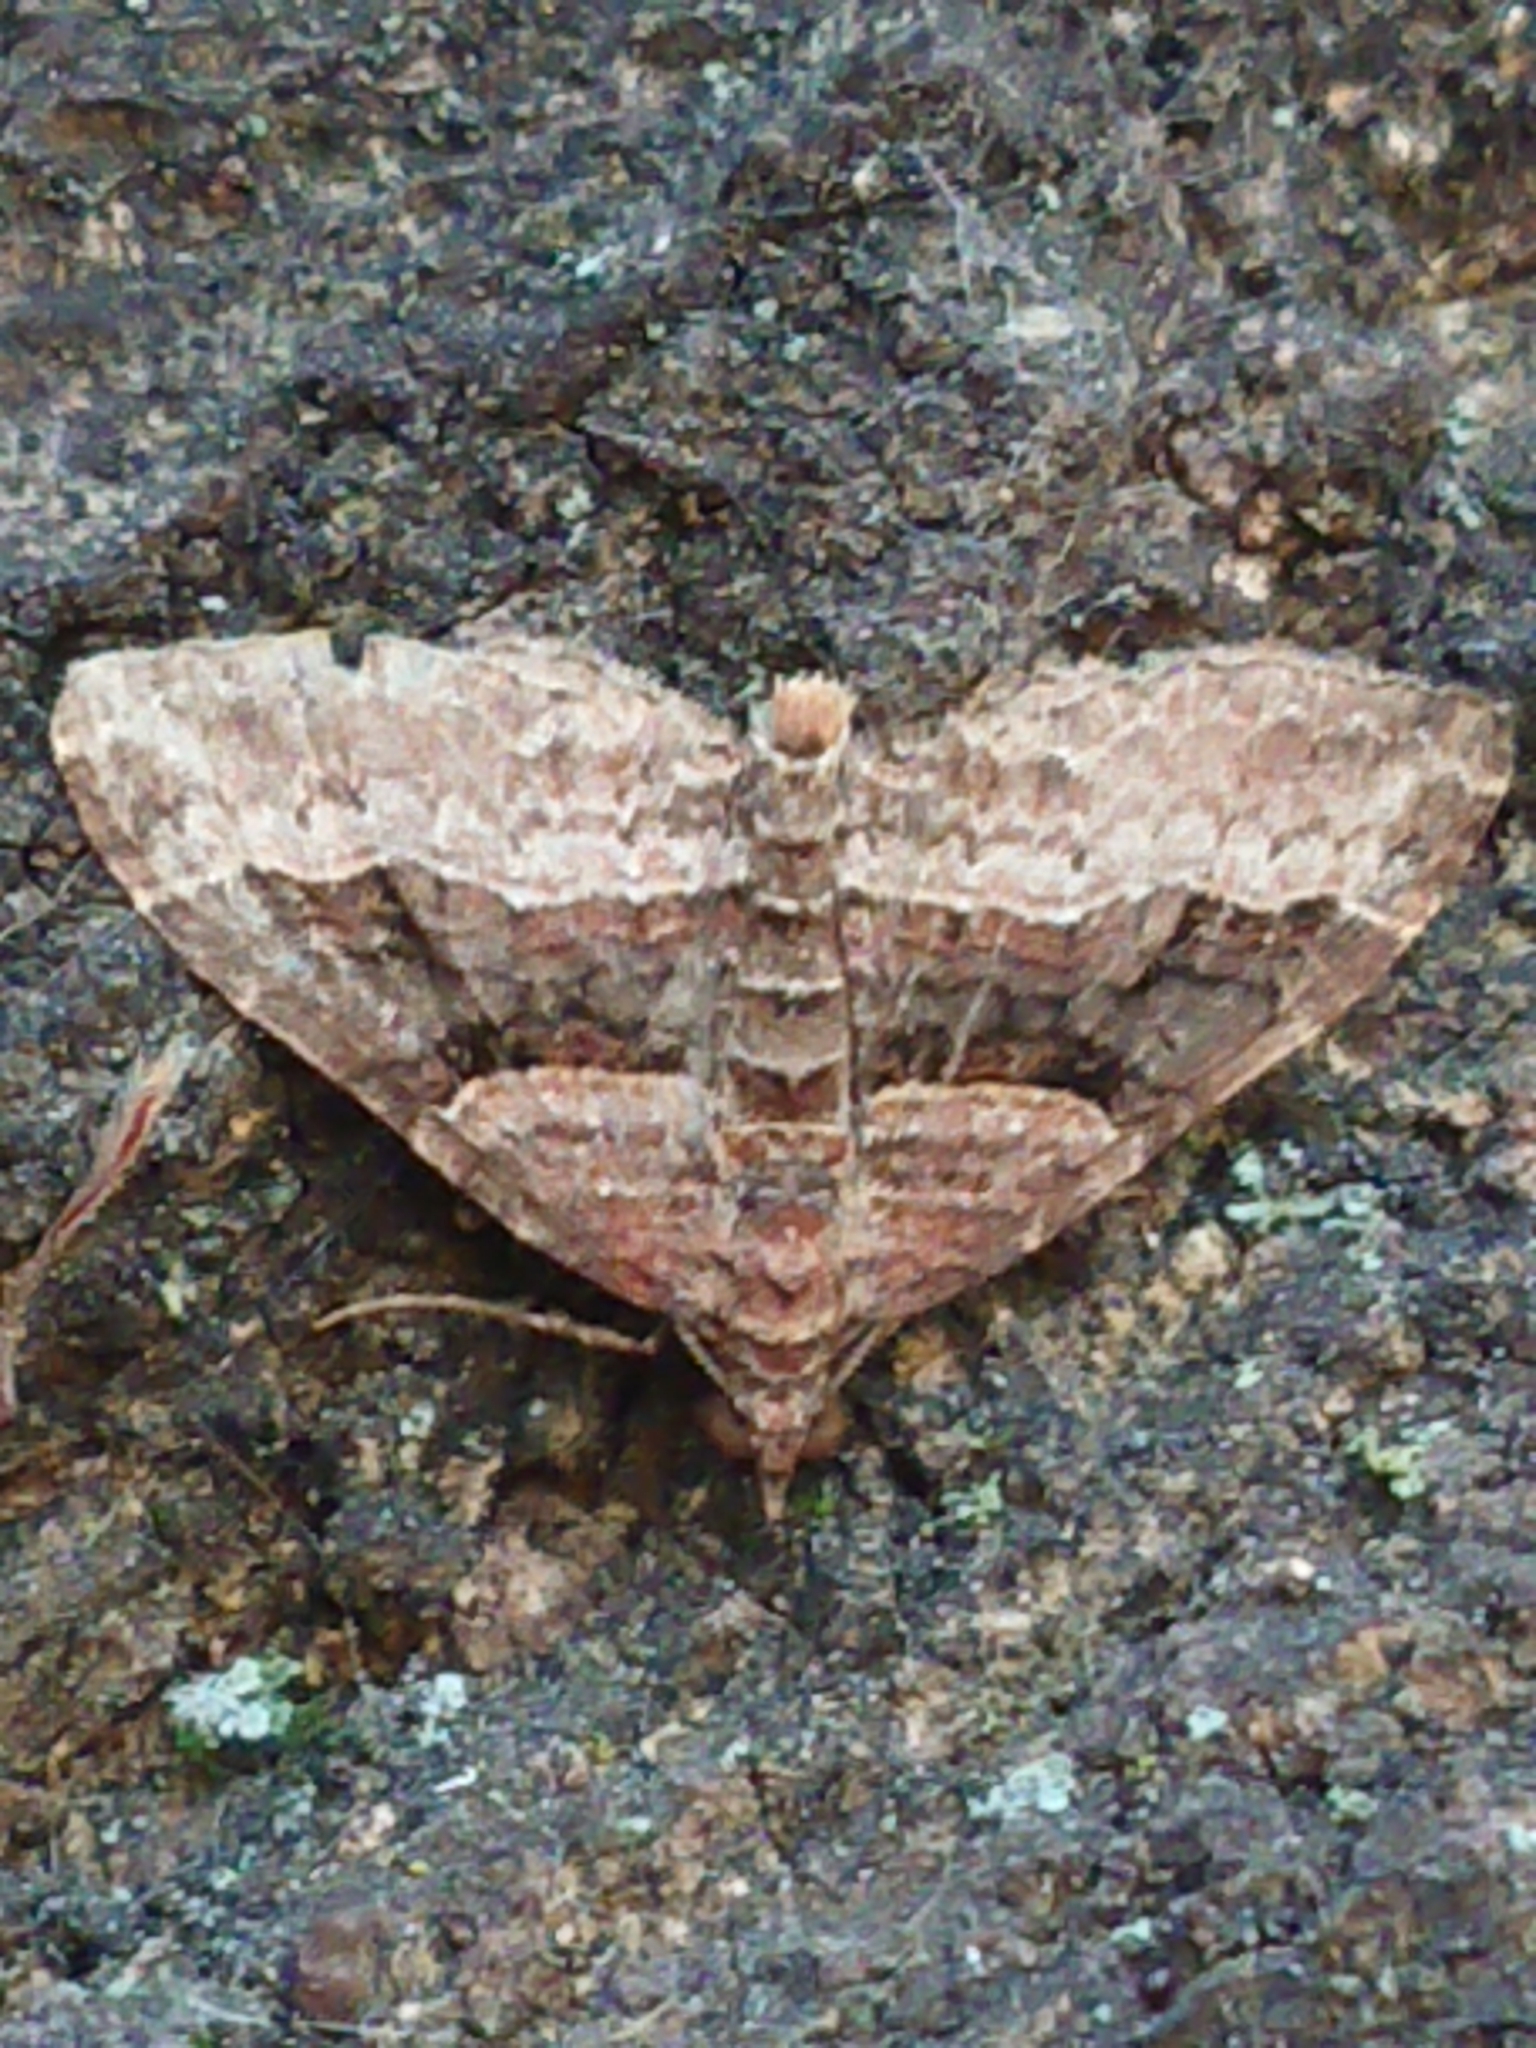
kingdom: Animalia
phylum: Arthropoda
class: Insecta
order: Lepidoptera
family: Geometridae
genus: Epyaxa
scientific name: Epyaxa lucidata
